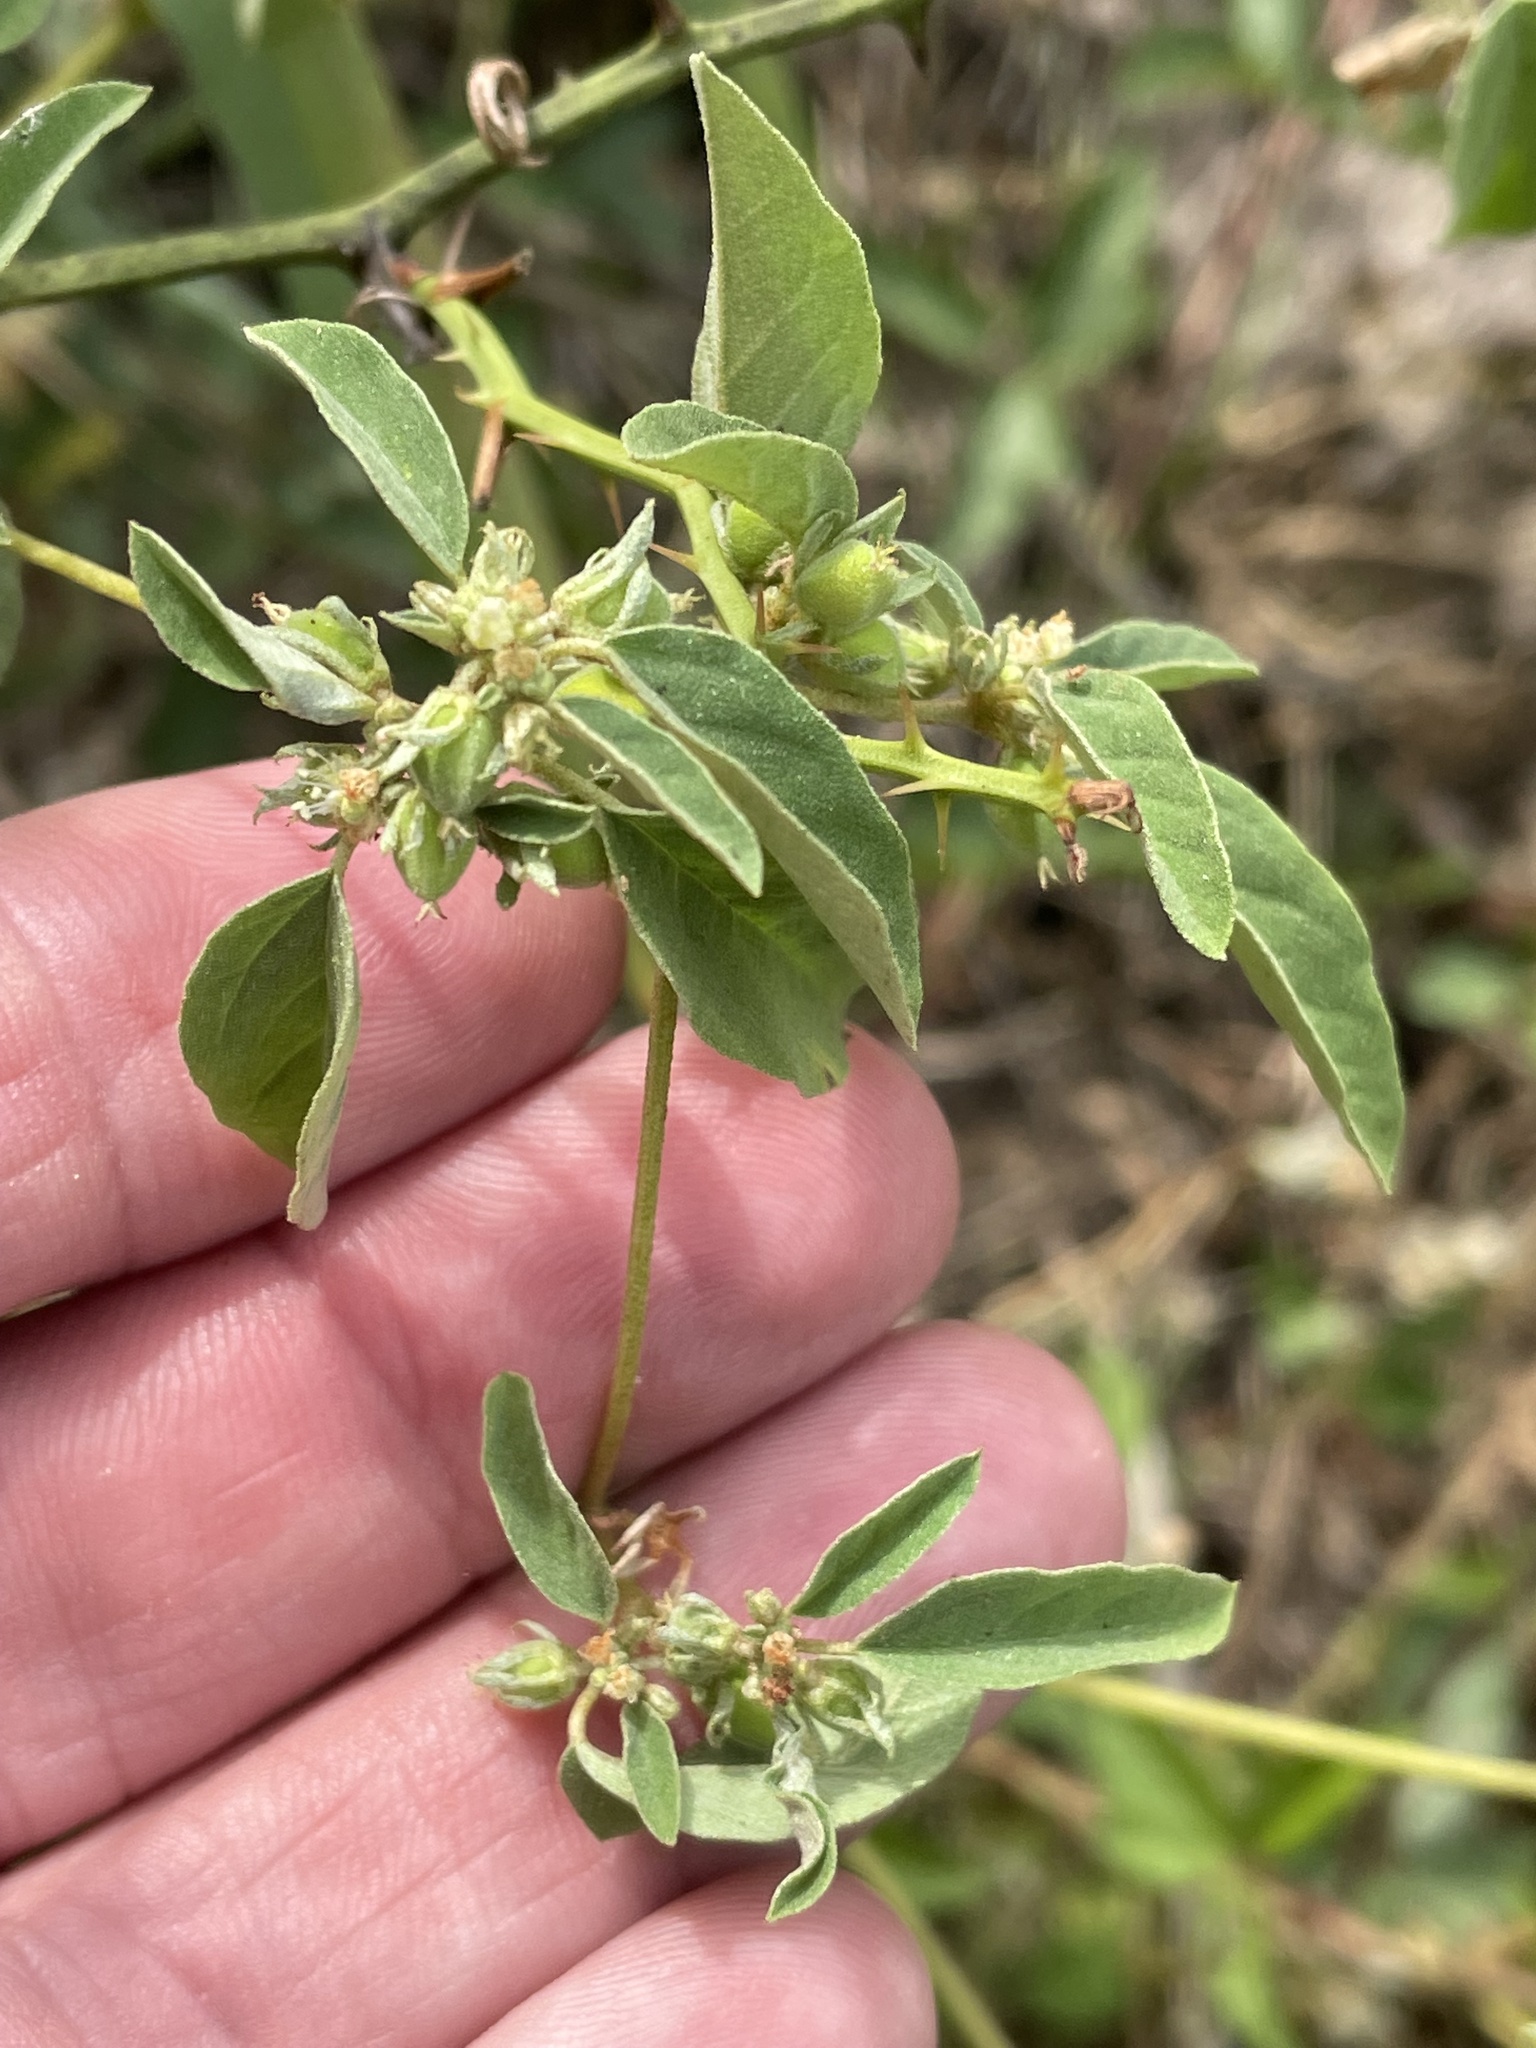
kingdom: Plantae
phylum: Tracheophyta
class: Magnoliopsida
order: Malpighiales
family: Euphorbiaceae
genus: Croton
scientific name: Croton monanthogynus
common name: One-seed croton
